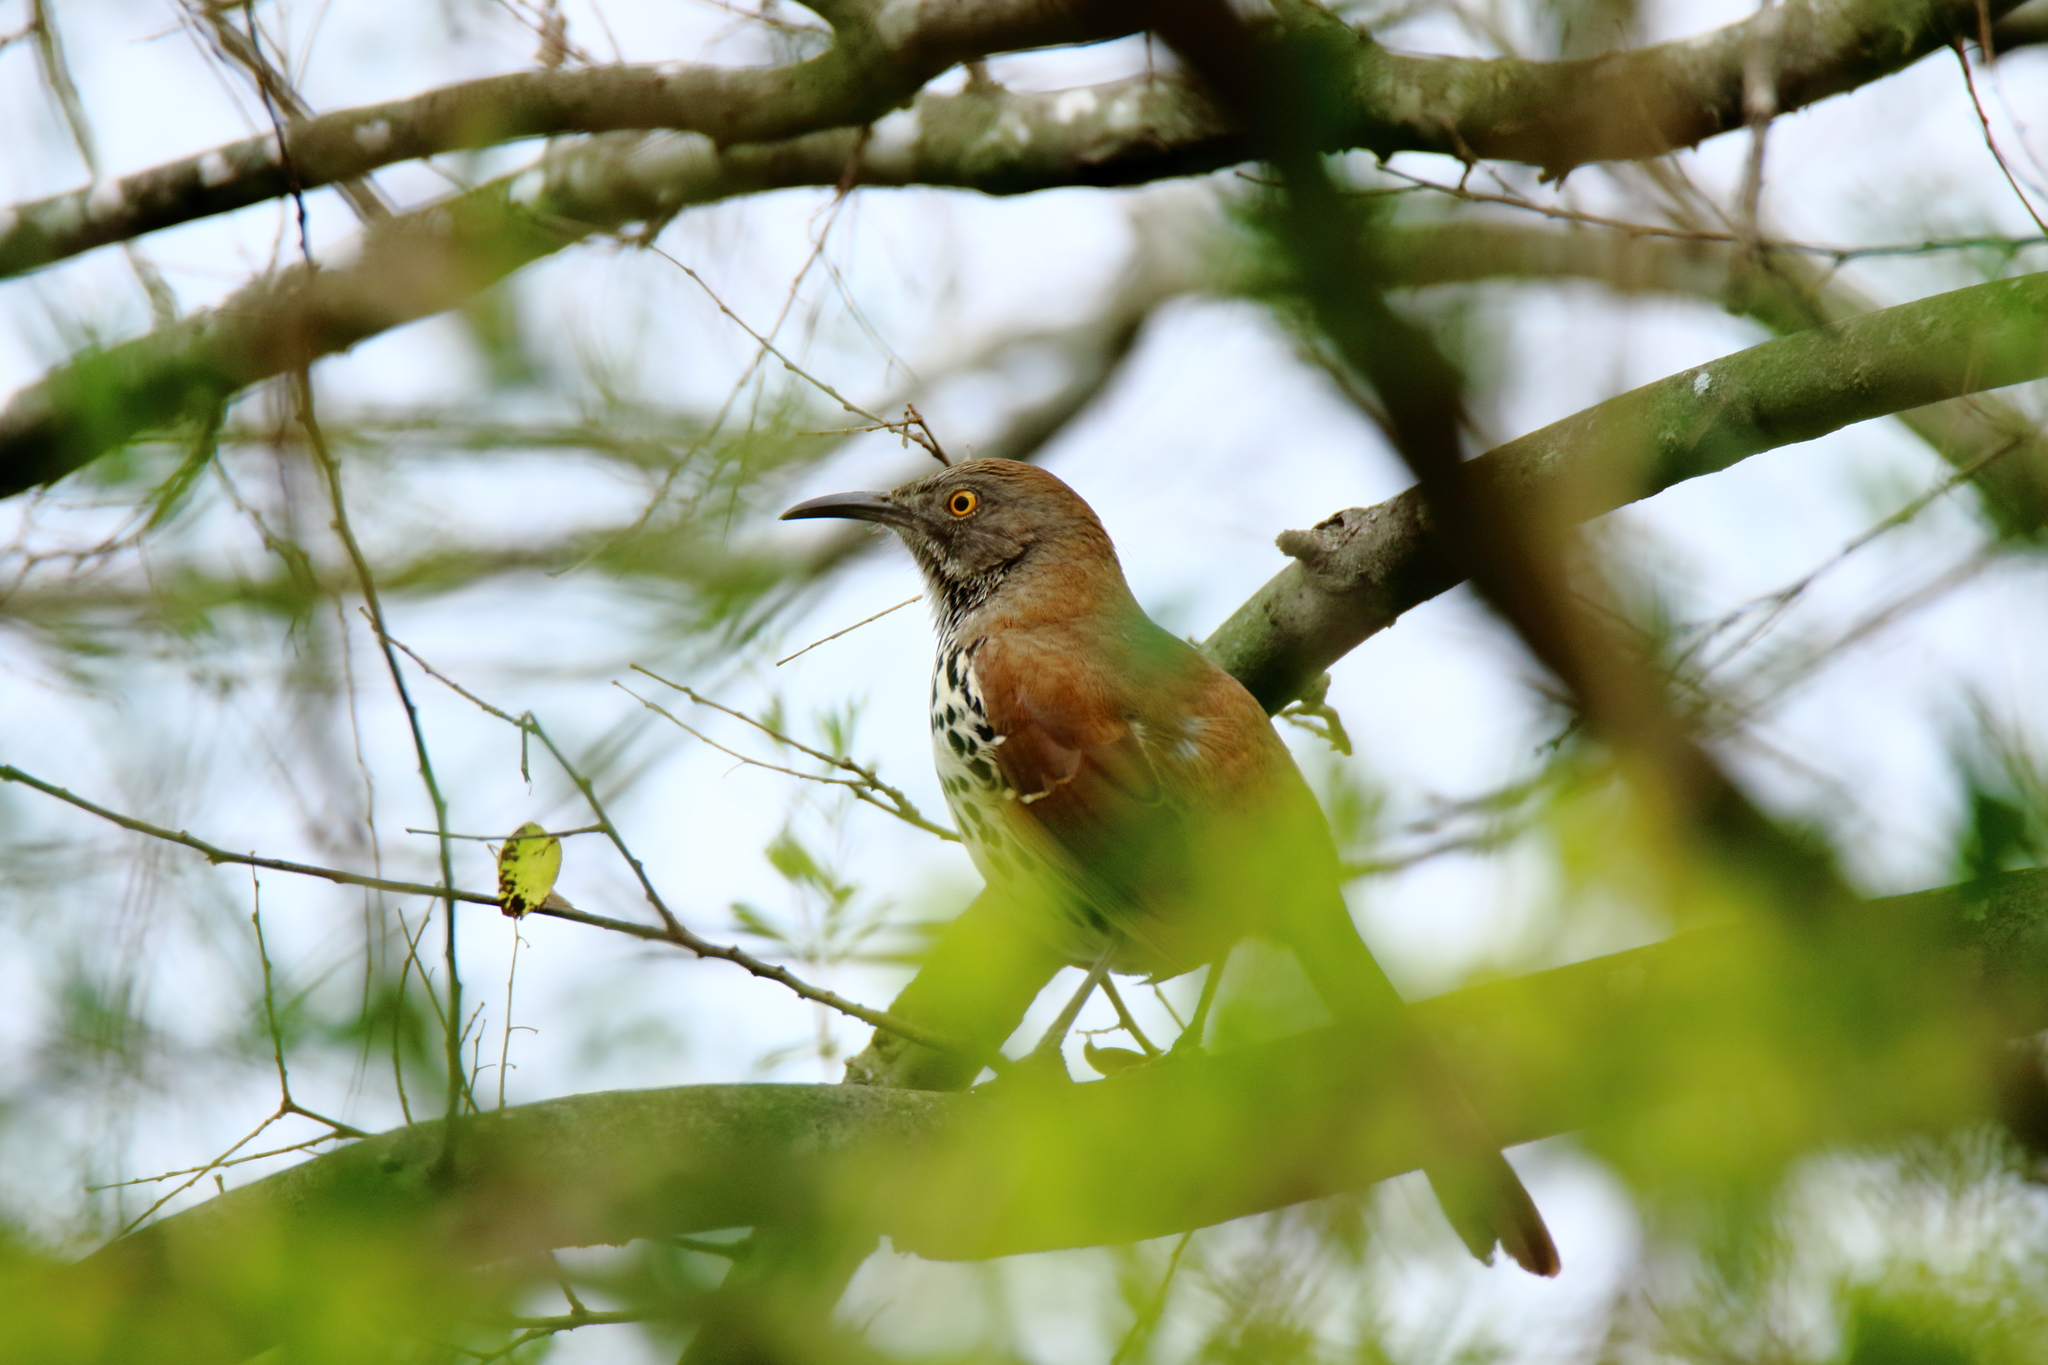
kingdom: Animalia
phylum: Chordata
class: Aves
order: Passeriformes
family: Mimidae
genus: Toxostoma
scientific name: Toxostoma longirostre
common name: Long-billed thrasher
